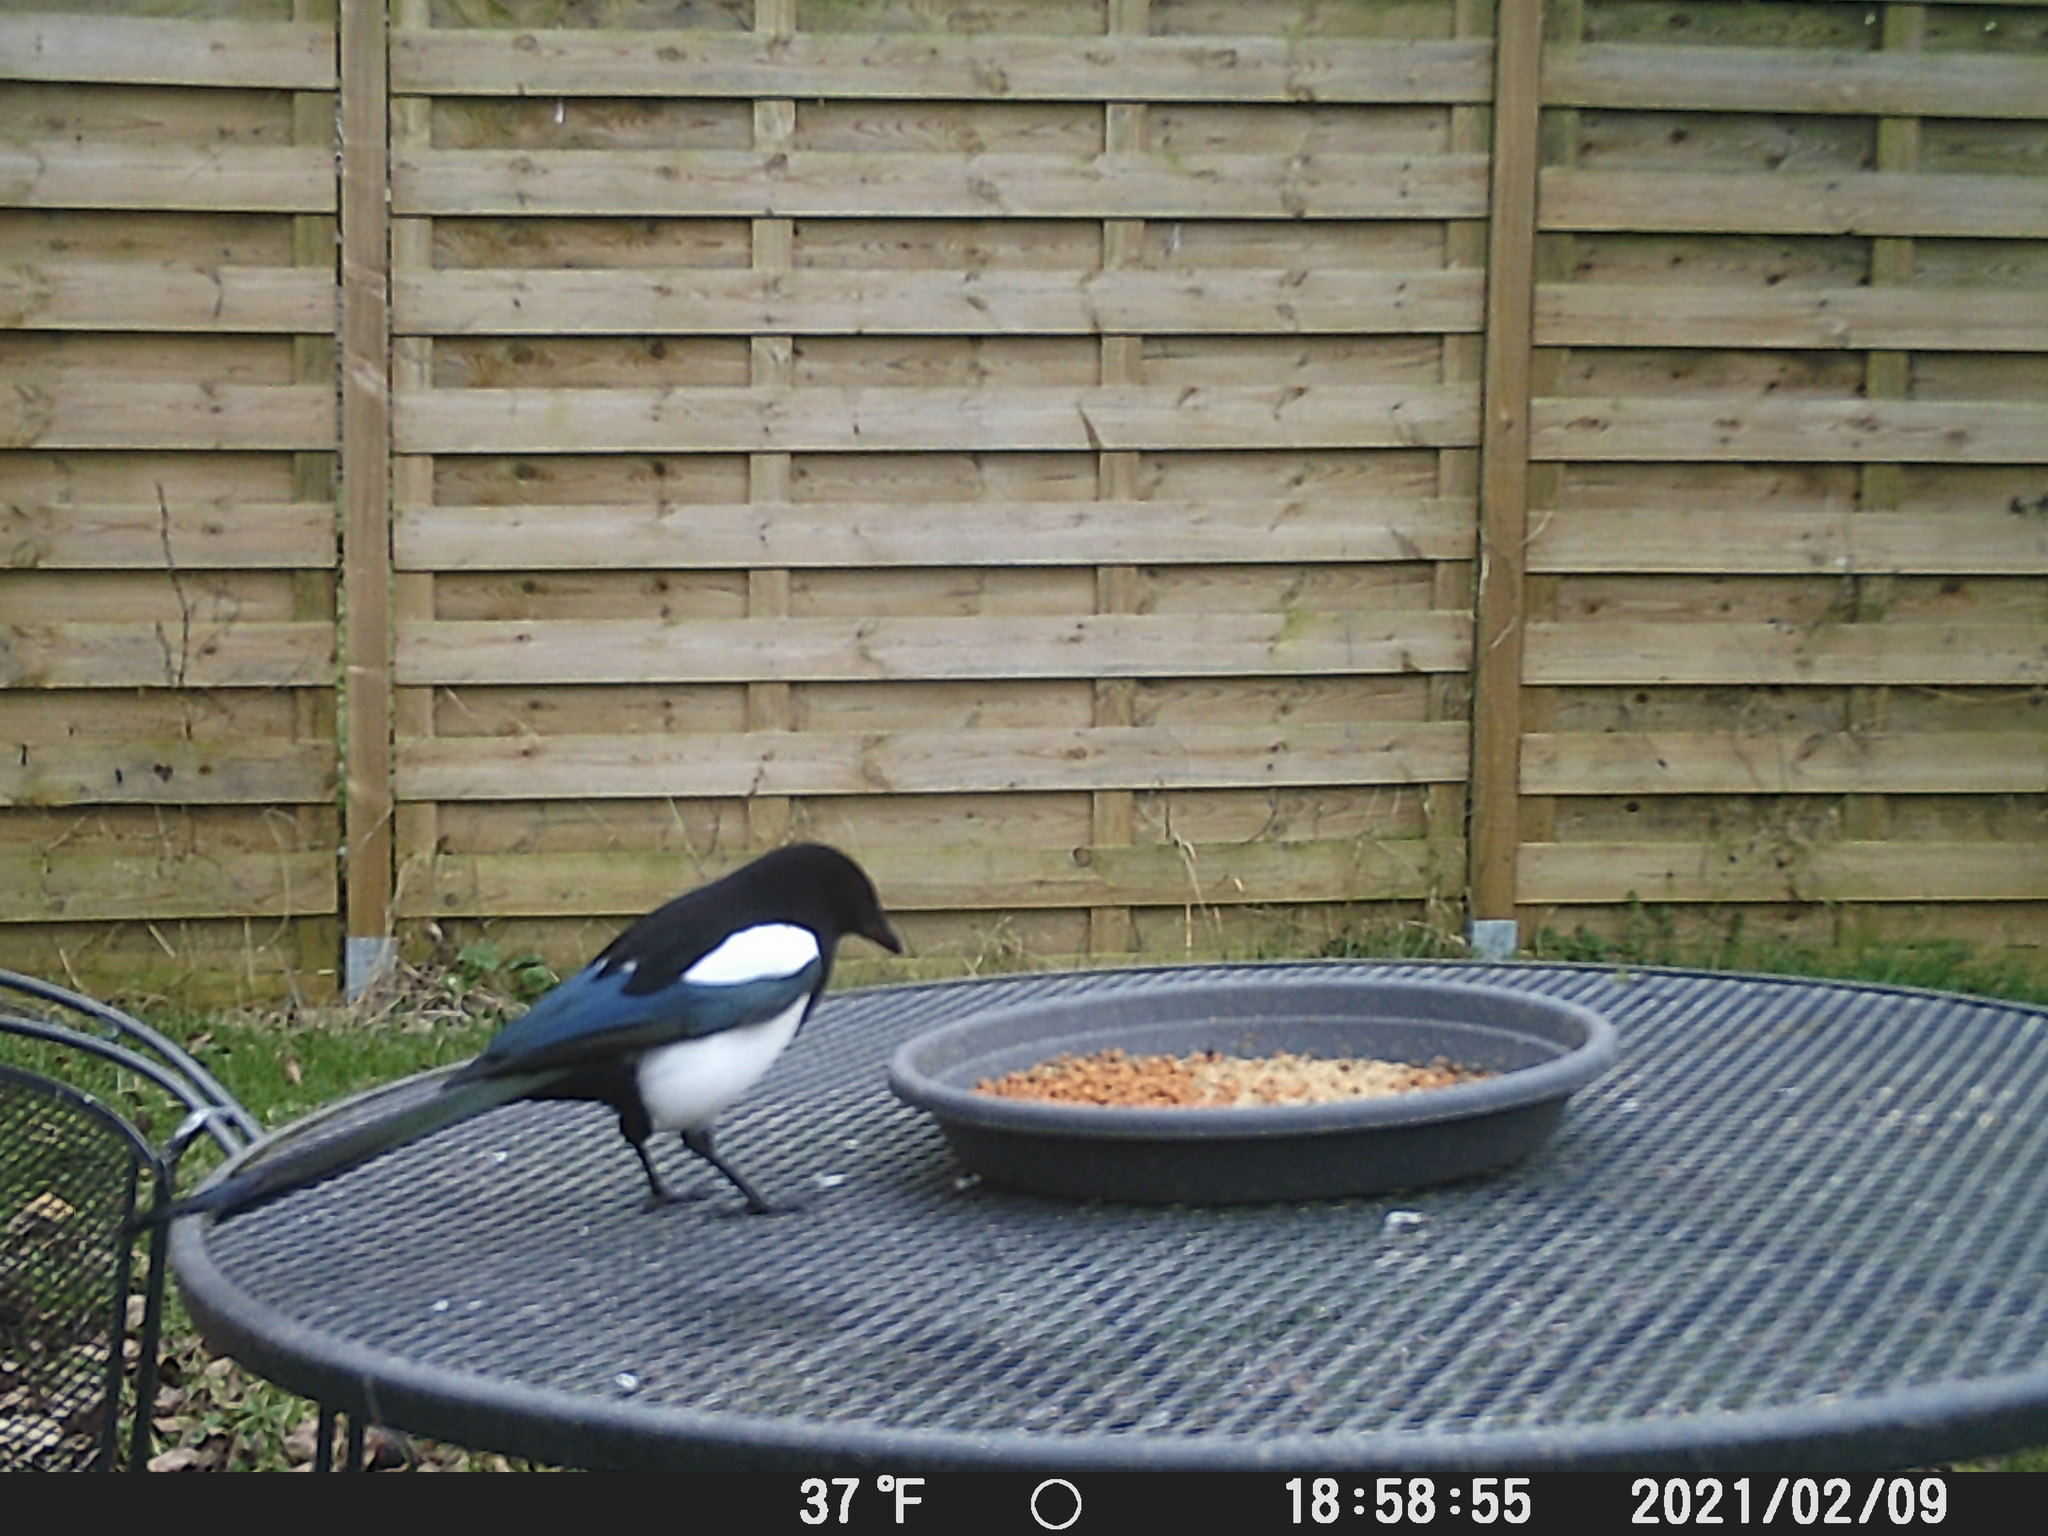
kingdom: Animalia
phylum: Chordata
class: Aves
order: Passeriformes
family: Corvidae
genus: Pica
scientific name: Pica pica
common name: Eurasian magpie
